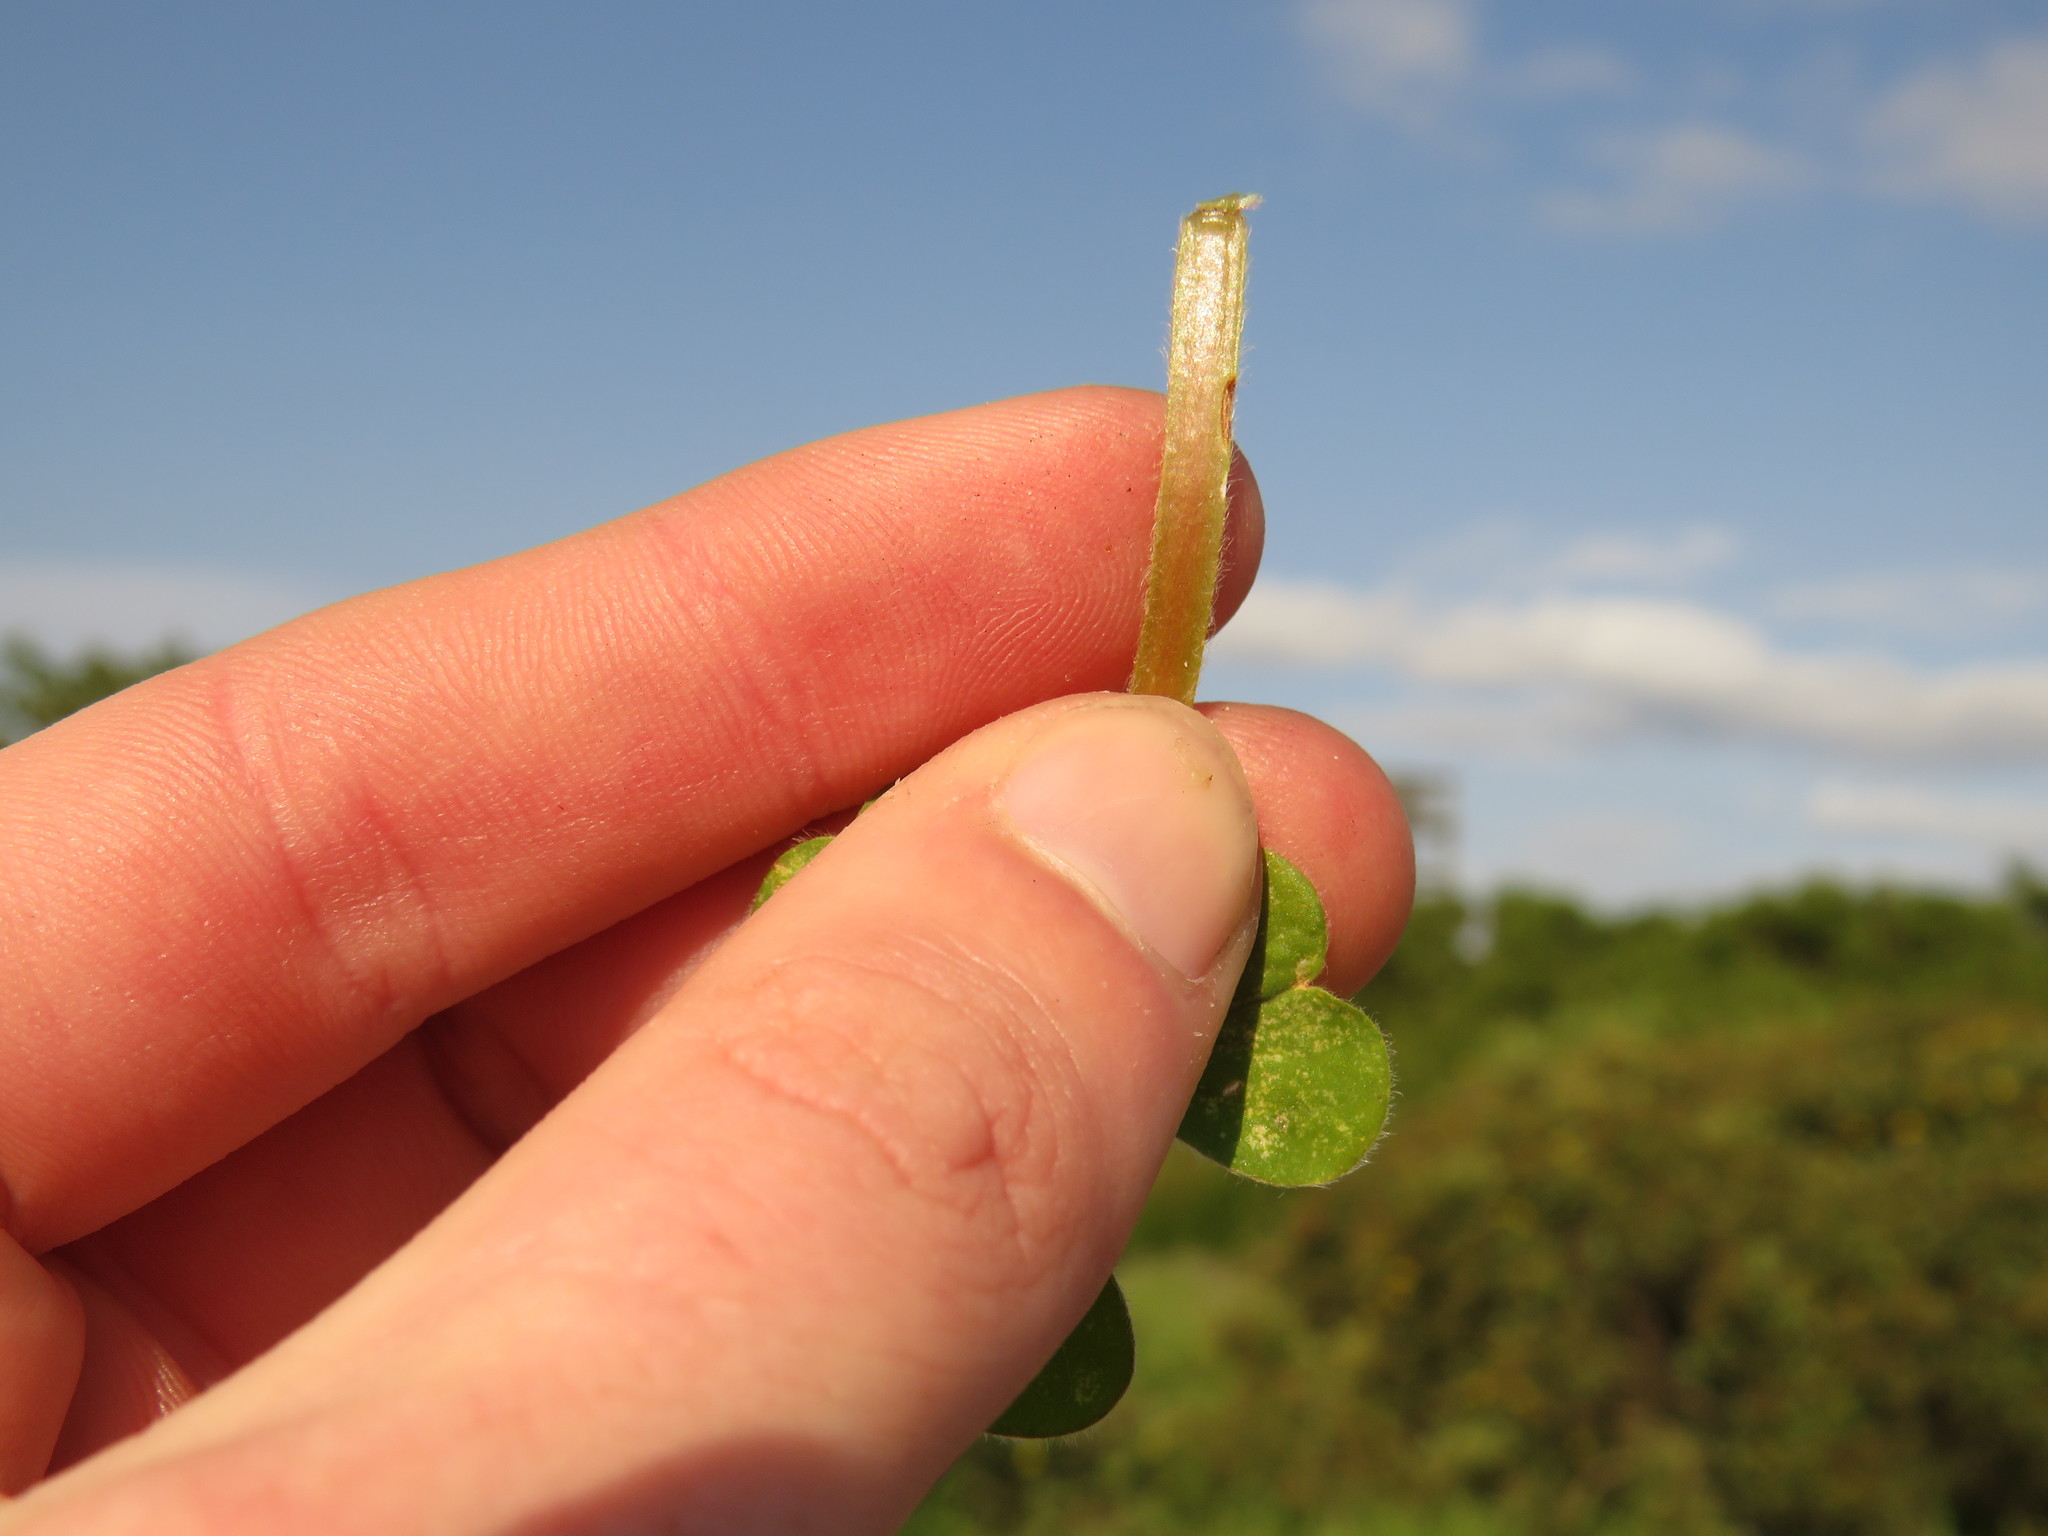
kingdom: Plantae
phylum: Tracheophyta
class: Magnoliopsida
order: Oxalidales
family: Oxalidaceae
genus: Oxalis
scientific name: Oxalis compressa
